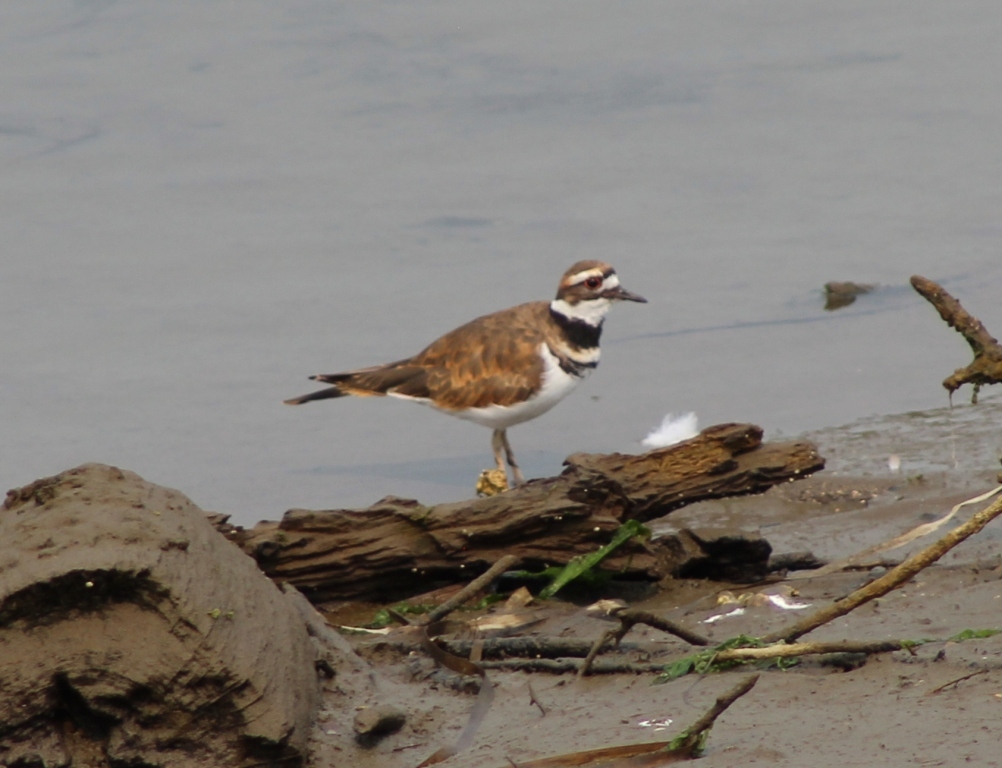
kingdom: Animalia
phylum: Chordata
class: Aves
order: Charadriiformes
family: Charadriidae
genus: Charadrius
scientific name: Charadrius vociferus
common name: Killdeer
